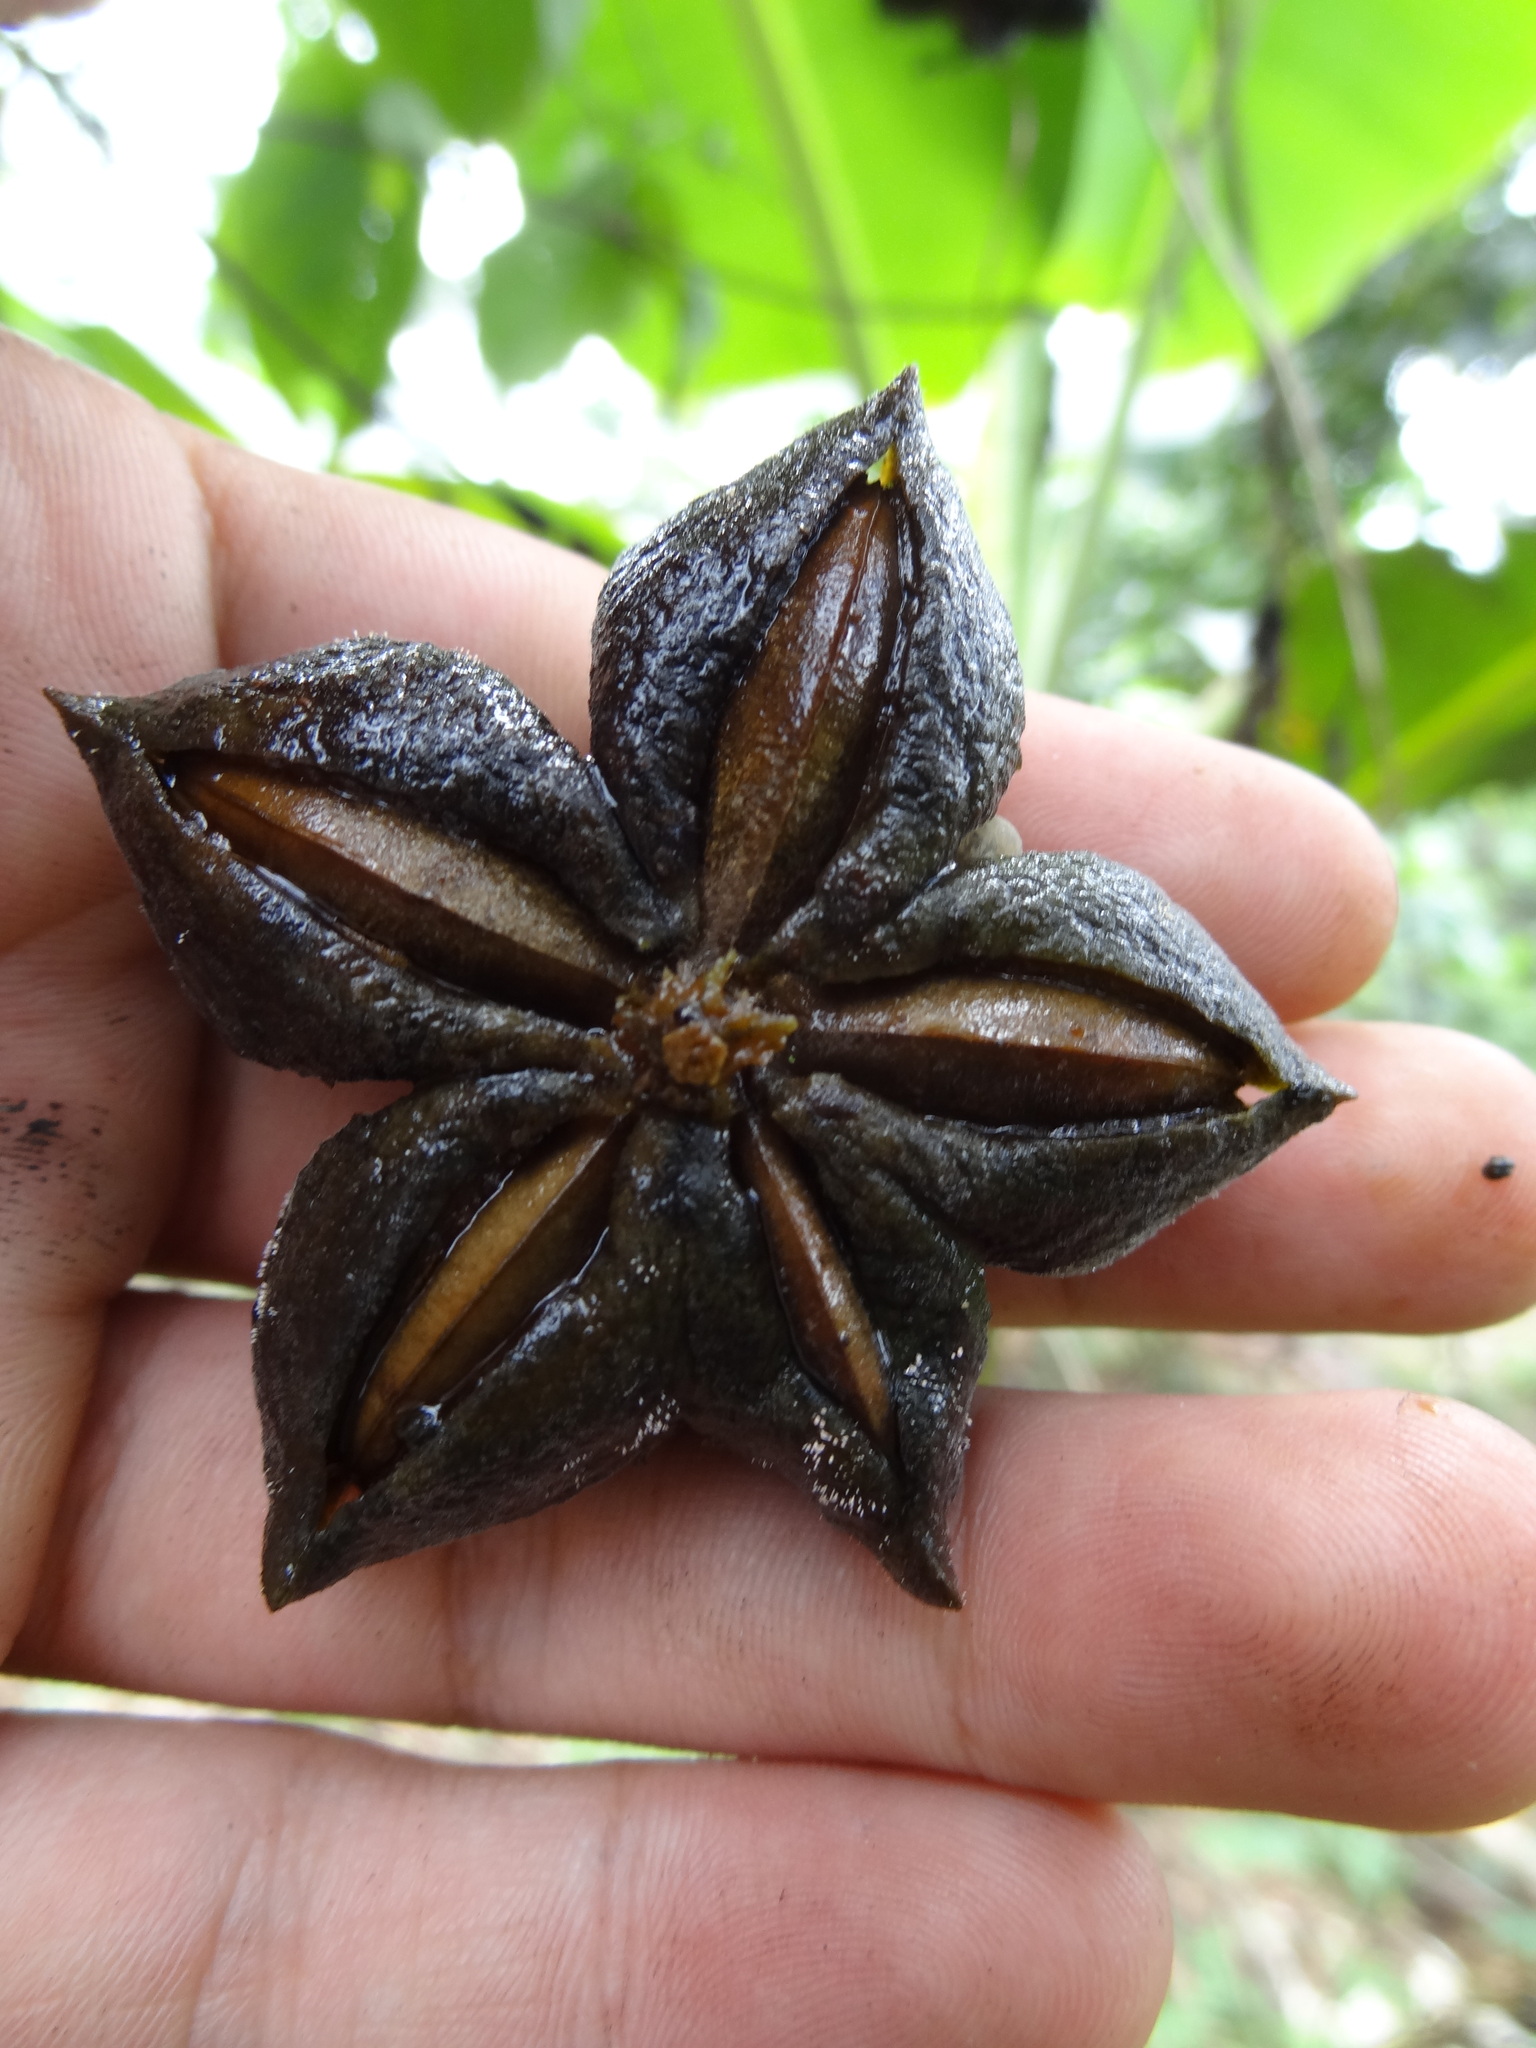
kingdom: Plantae
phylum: Tracheophyta
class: Magnoliopsida
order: Malpighiales
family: Euphorbiaceae
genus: Plukenetia
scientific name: Plukenetia volubilis
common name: Inca-peanut
